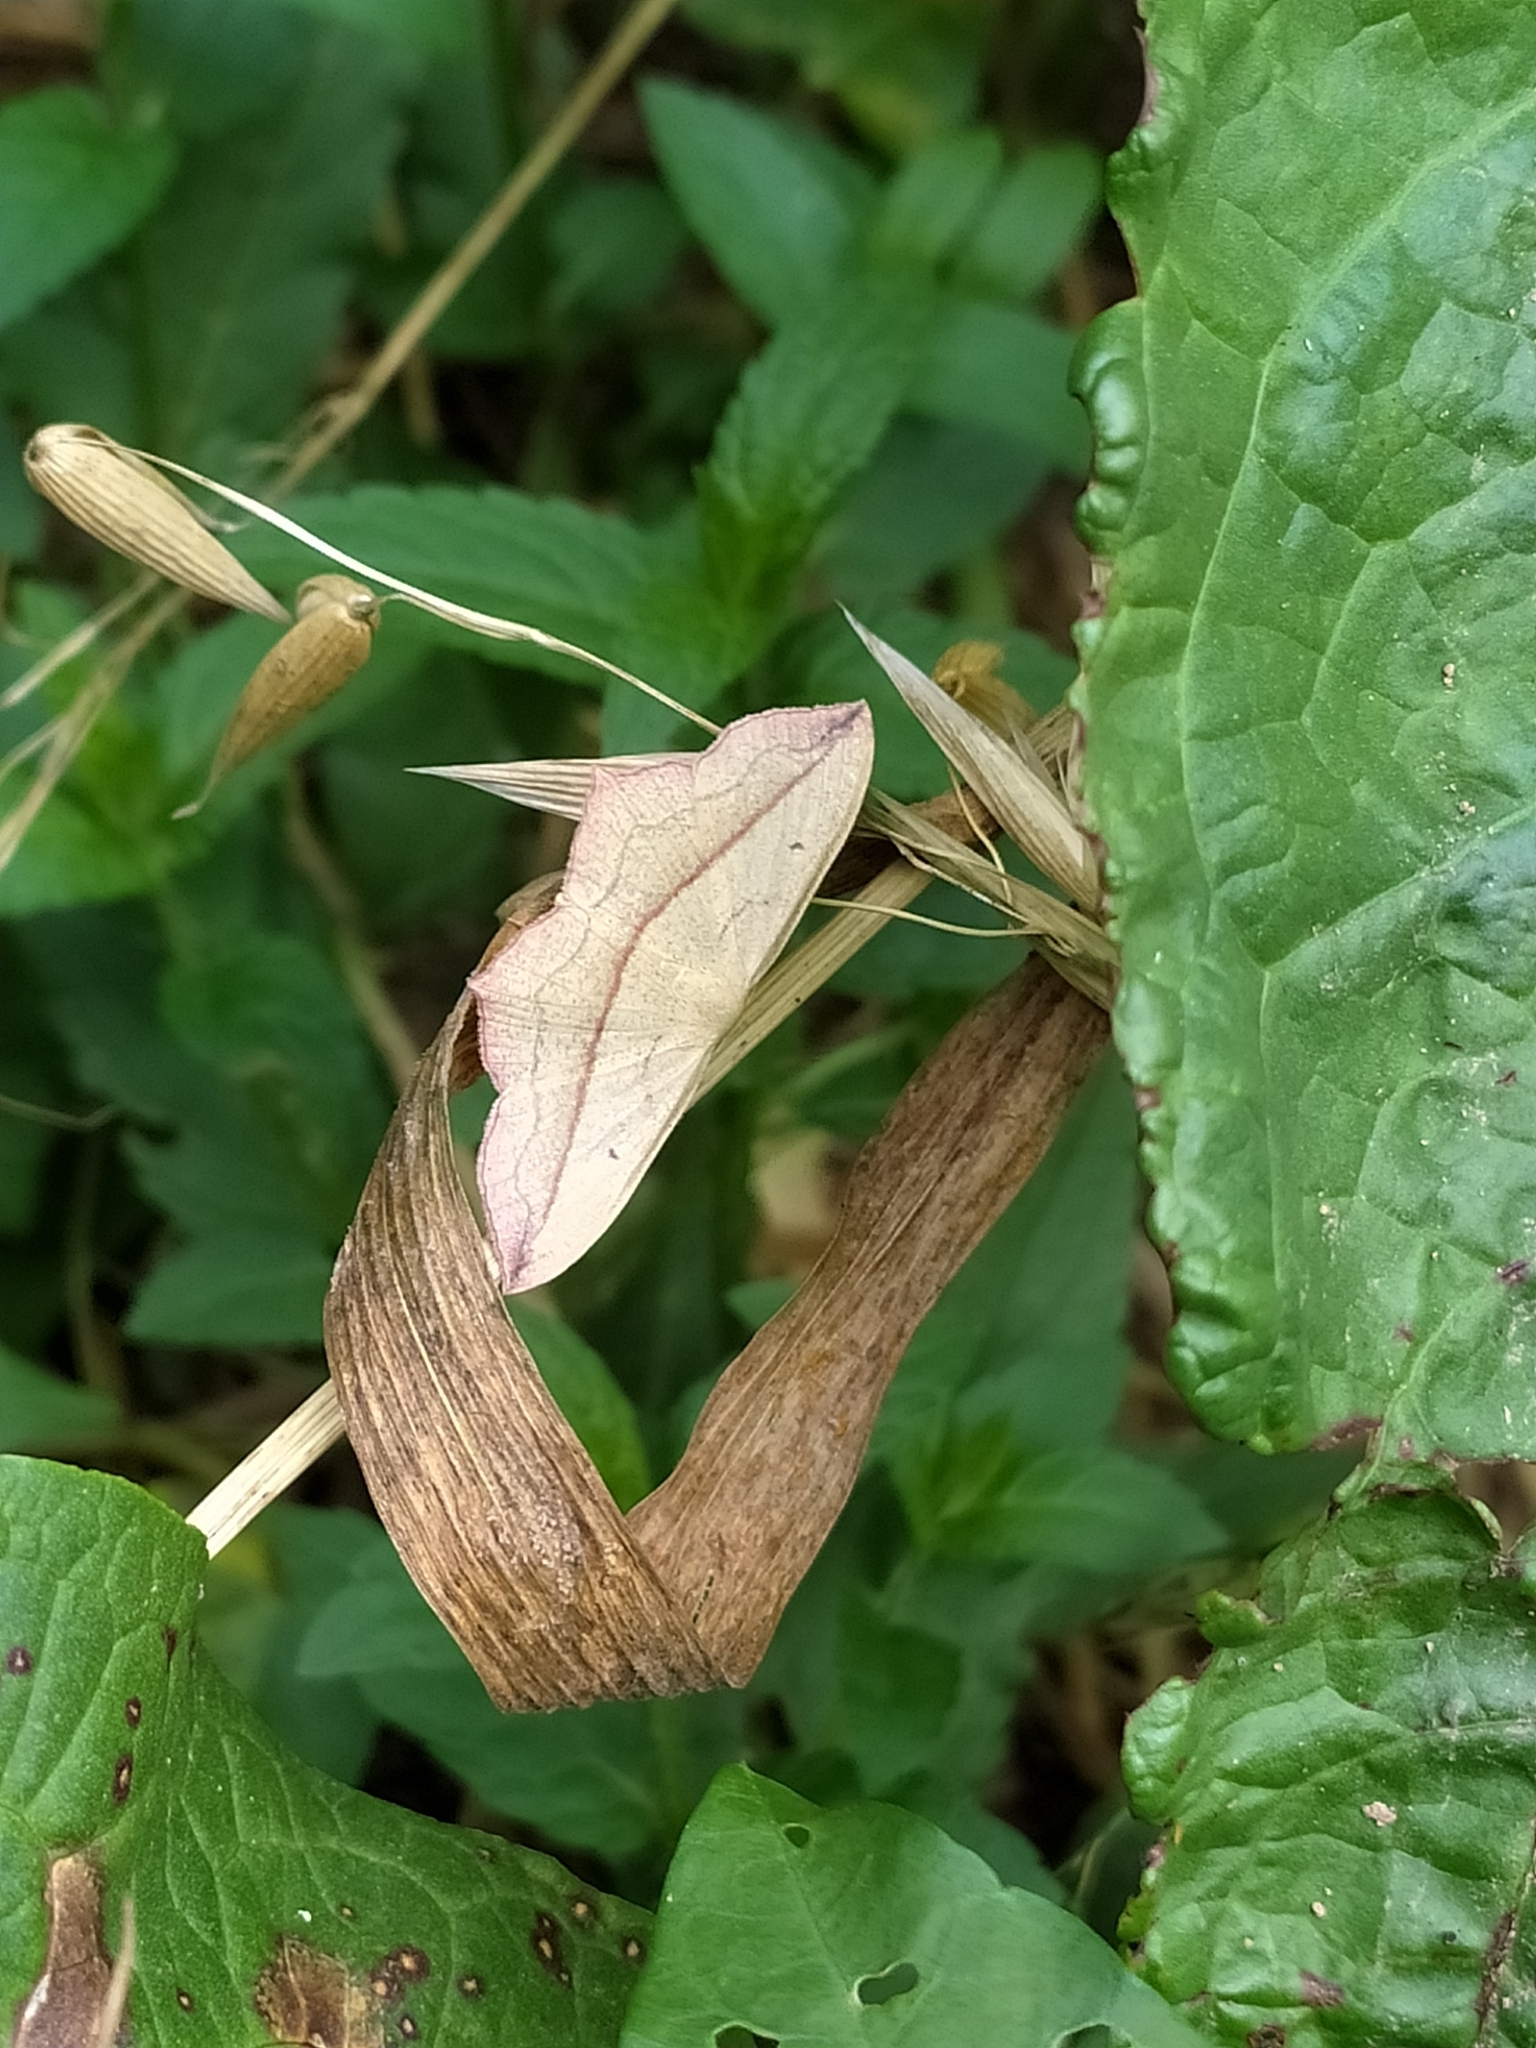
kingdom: Animalia
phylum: Arthropoda
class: Insecta
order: Lepidoptera
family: Geometridae
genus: Timandra
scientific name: Timandra comae
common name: Blood-vein
